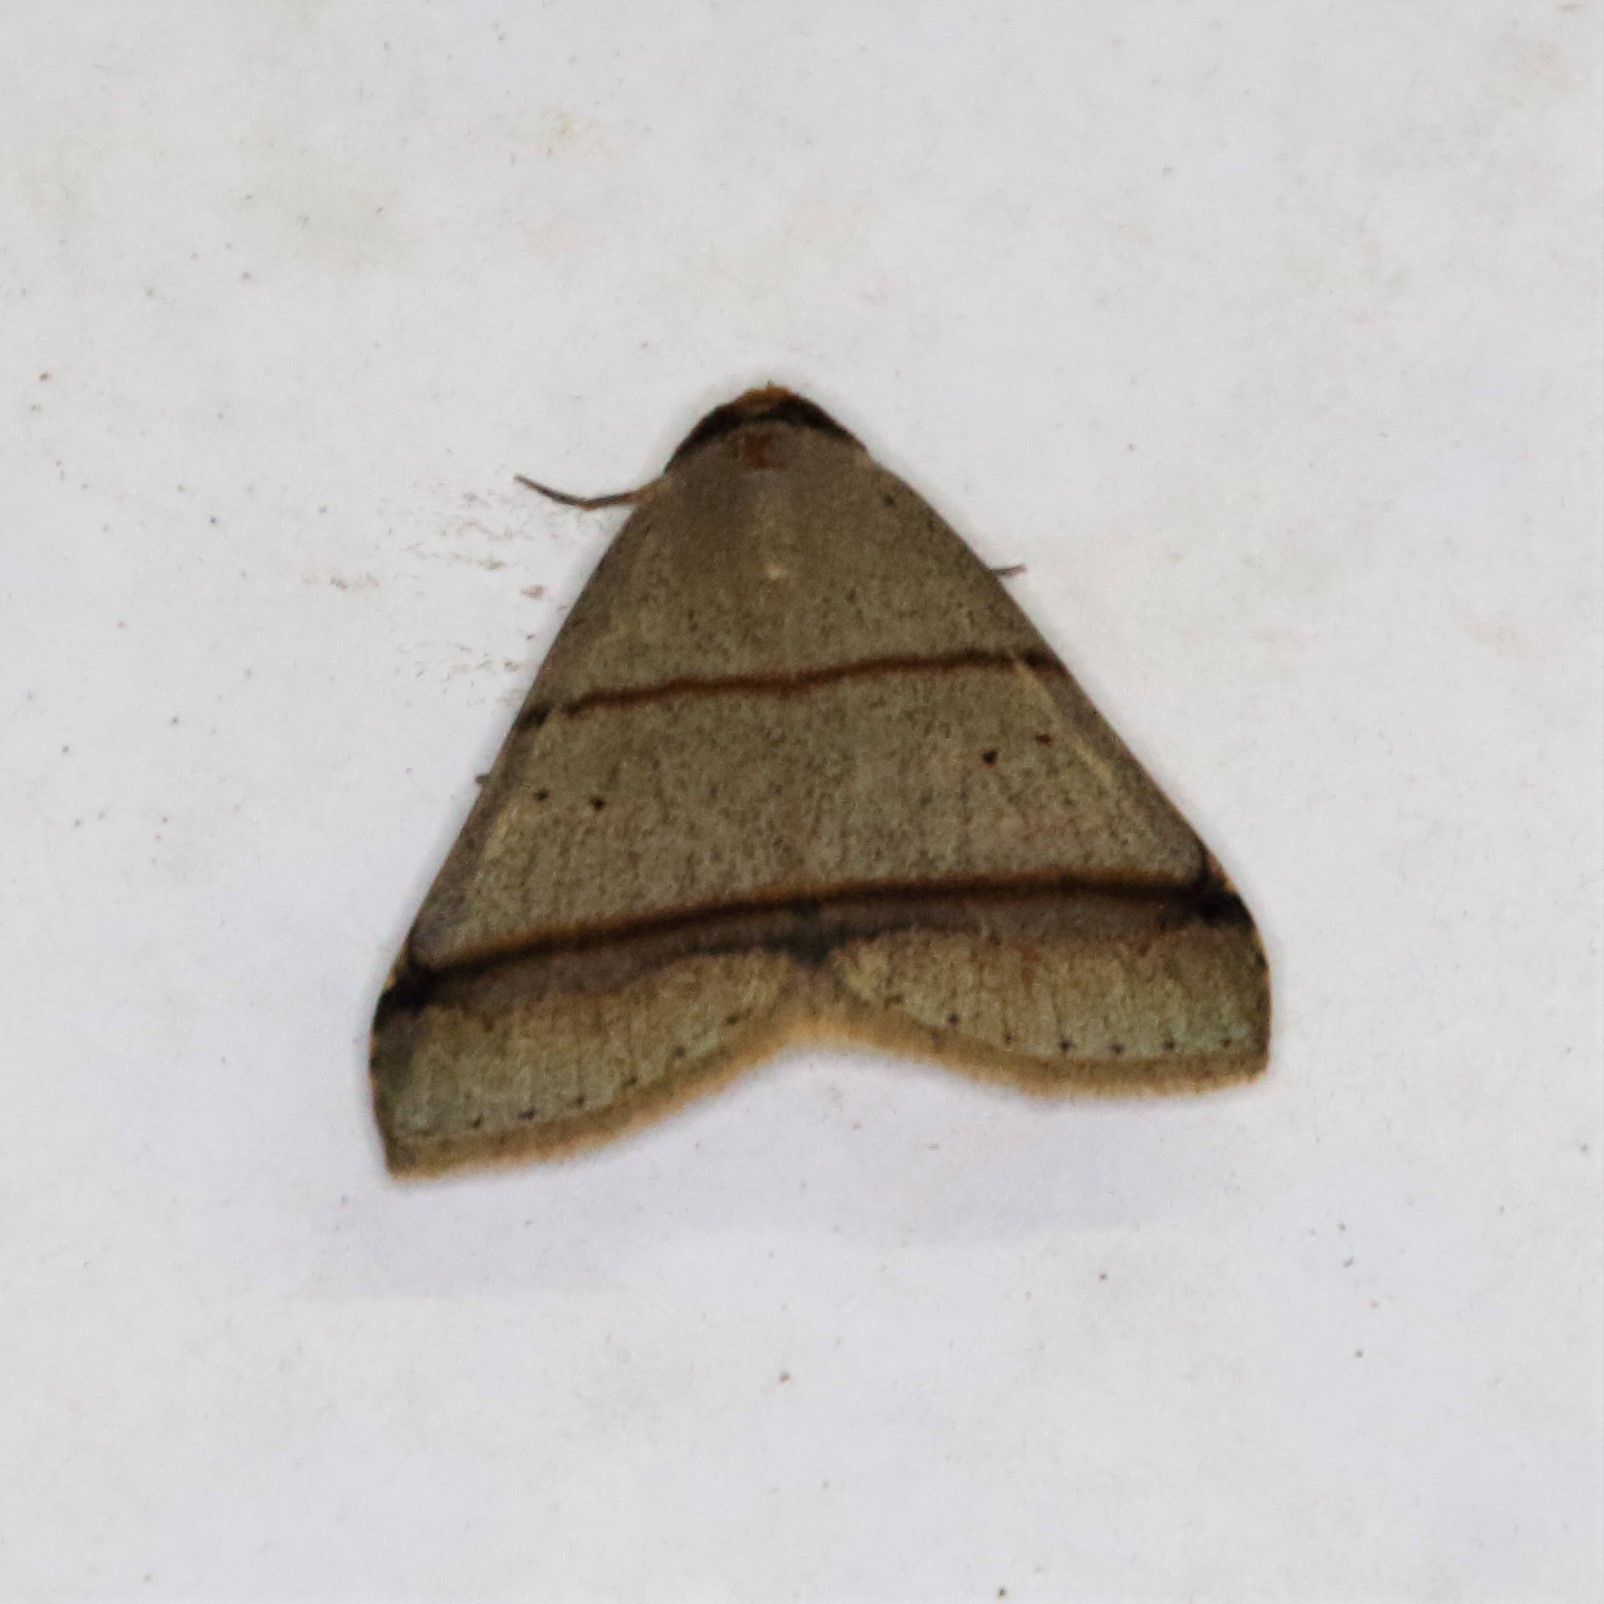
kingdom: Animalia
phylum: Arthropoda
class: Insecta
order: Lepidoptera
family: Erebidae
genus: Plecoptera
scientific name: Plecoptera recta
